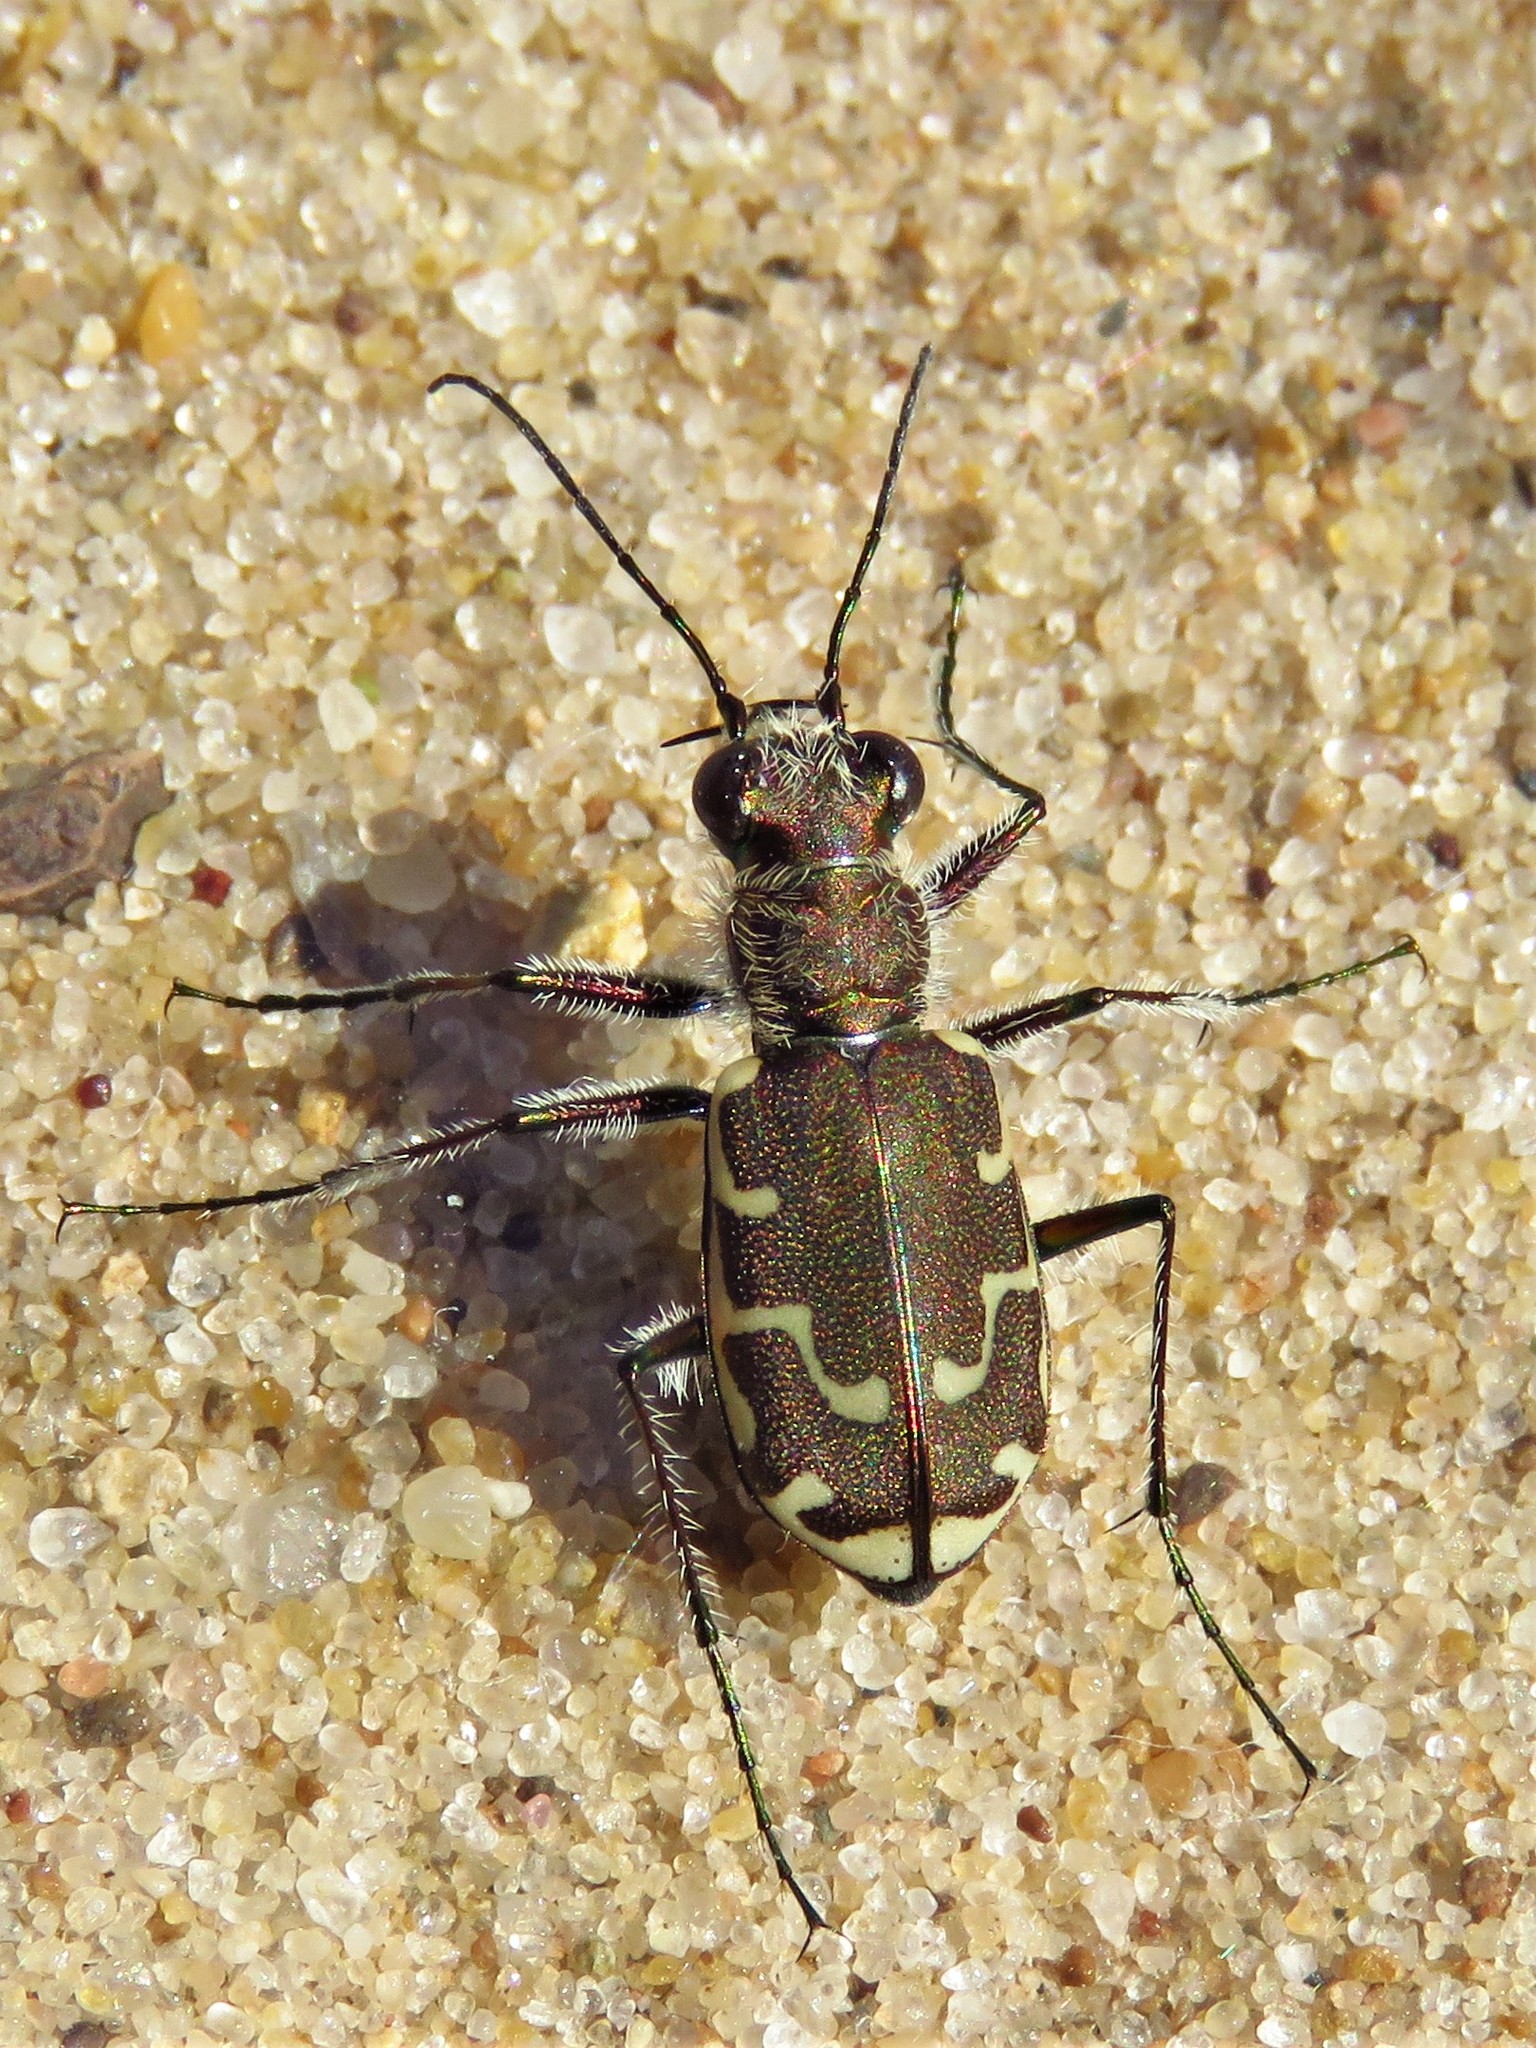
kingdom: Animalia
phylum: Arthropoda
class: Insecta
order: Coleoptera
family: Carabidae
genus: Cicindela
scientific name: Cicindela repanda
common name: Bronzed tiger beetle
